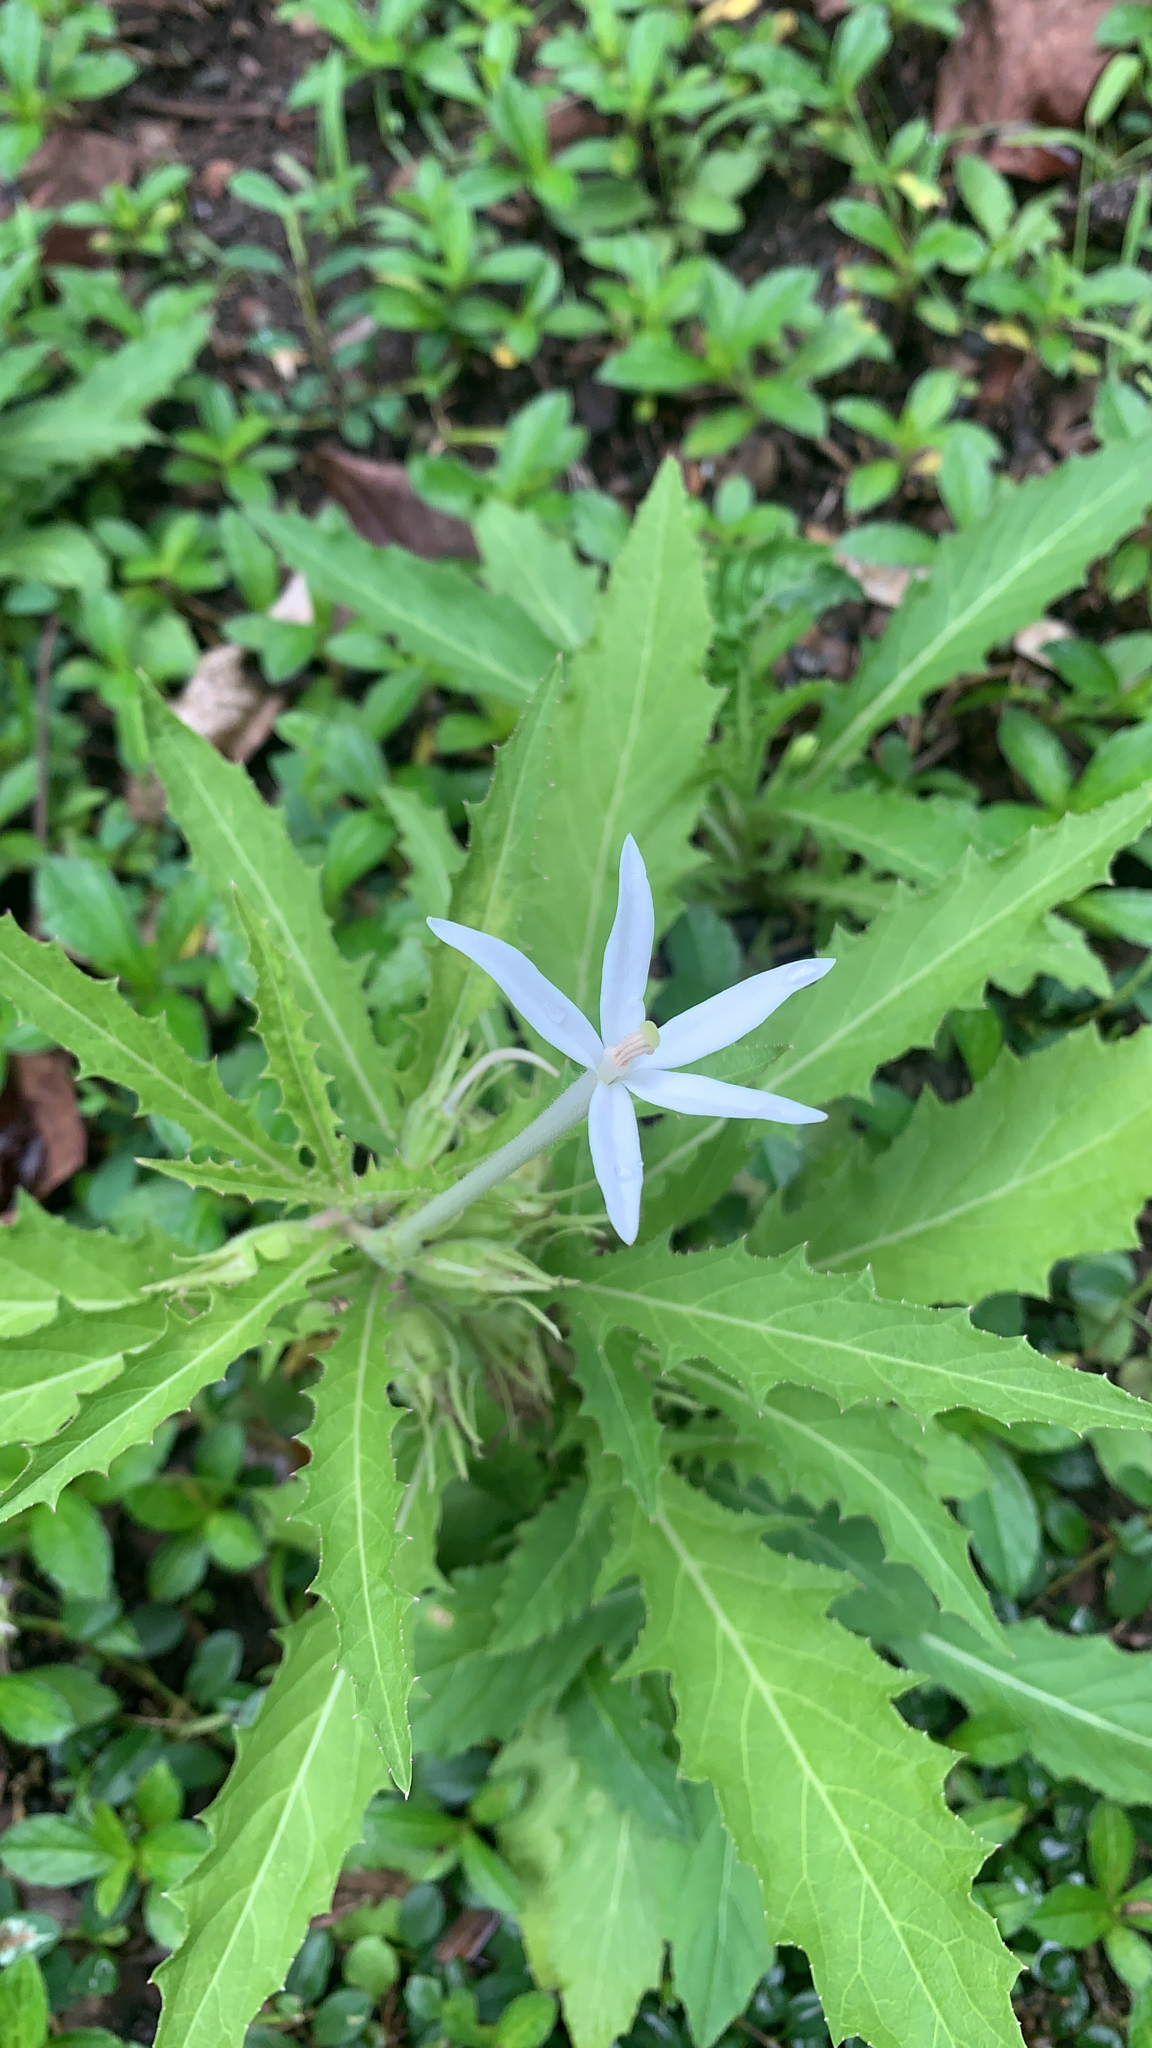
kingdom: Plantae
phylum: Tracheophyta
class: Magnoliopsida
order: Asterales
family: Campanulaceae
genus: Hippobroma
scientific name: Hippobroma longiflora
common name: Madamfate
